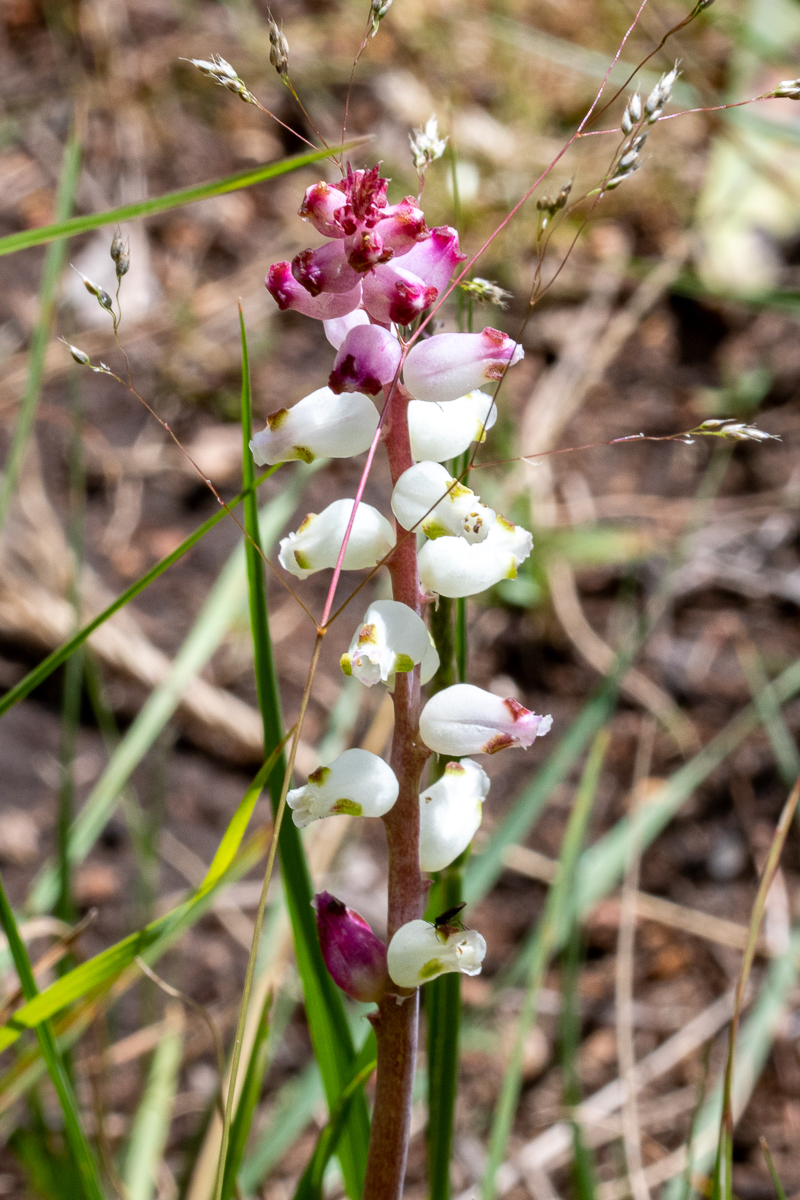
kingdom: Plantae
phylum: Tracheophyta
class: Liliopsida
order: Asparagales
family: Asparagaceae
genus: Lachenalia
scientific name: Lachenalia peersii
